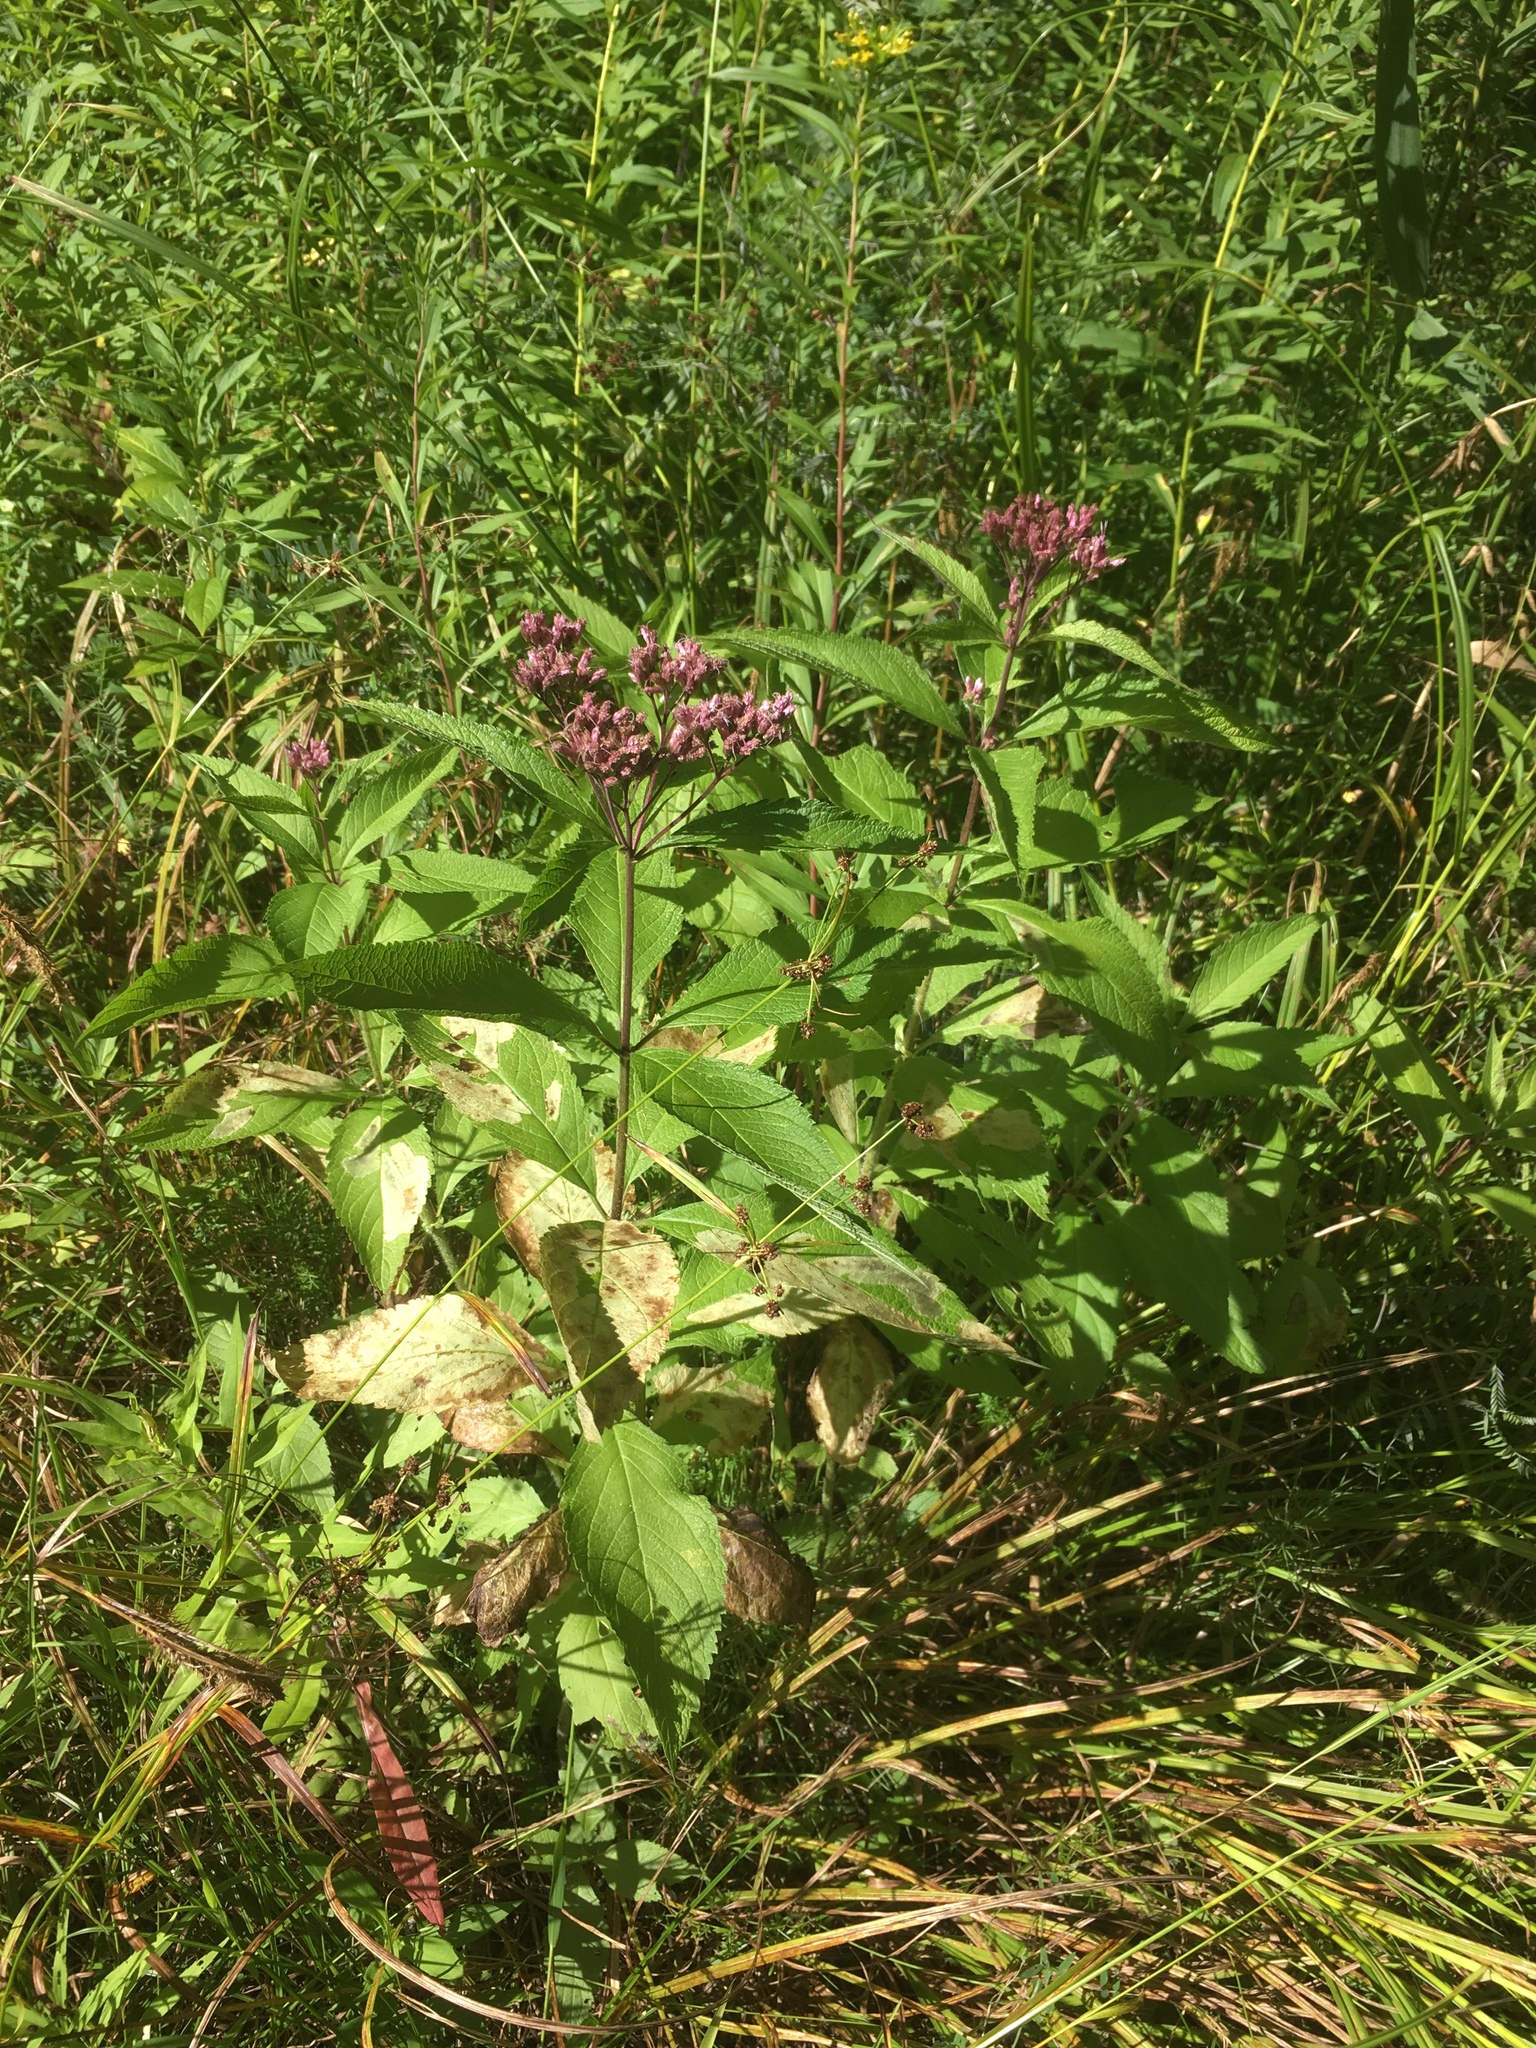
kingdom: Plantae
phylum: Tracheophyta
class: Magnoliopsida
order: Asterales
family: Asteraceae
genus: Eutrochium
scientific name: Eutrochium maculatum
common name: Spotted joe pye weed
